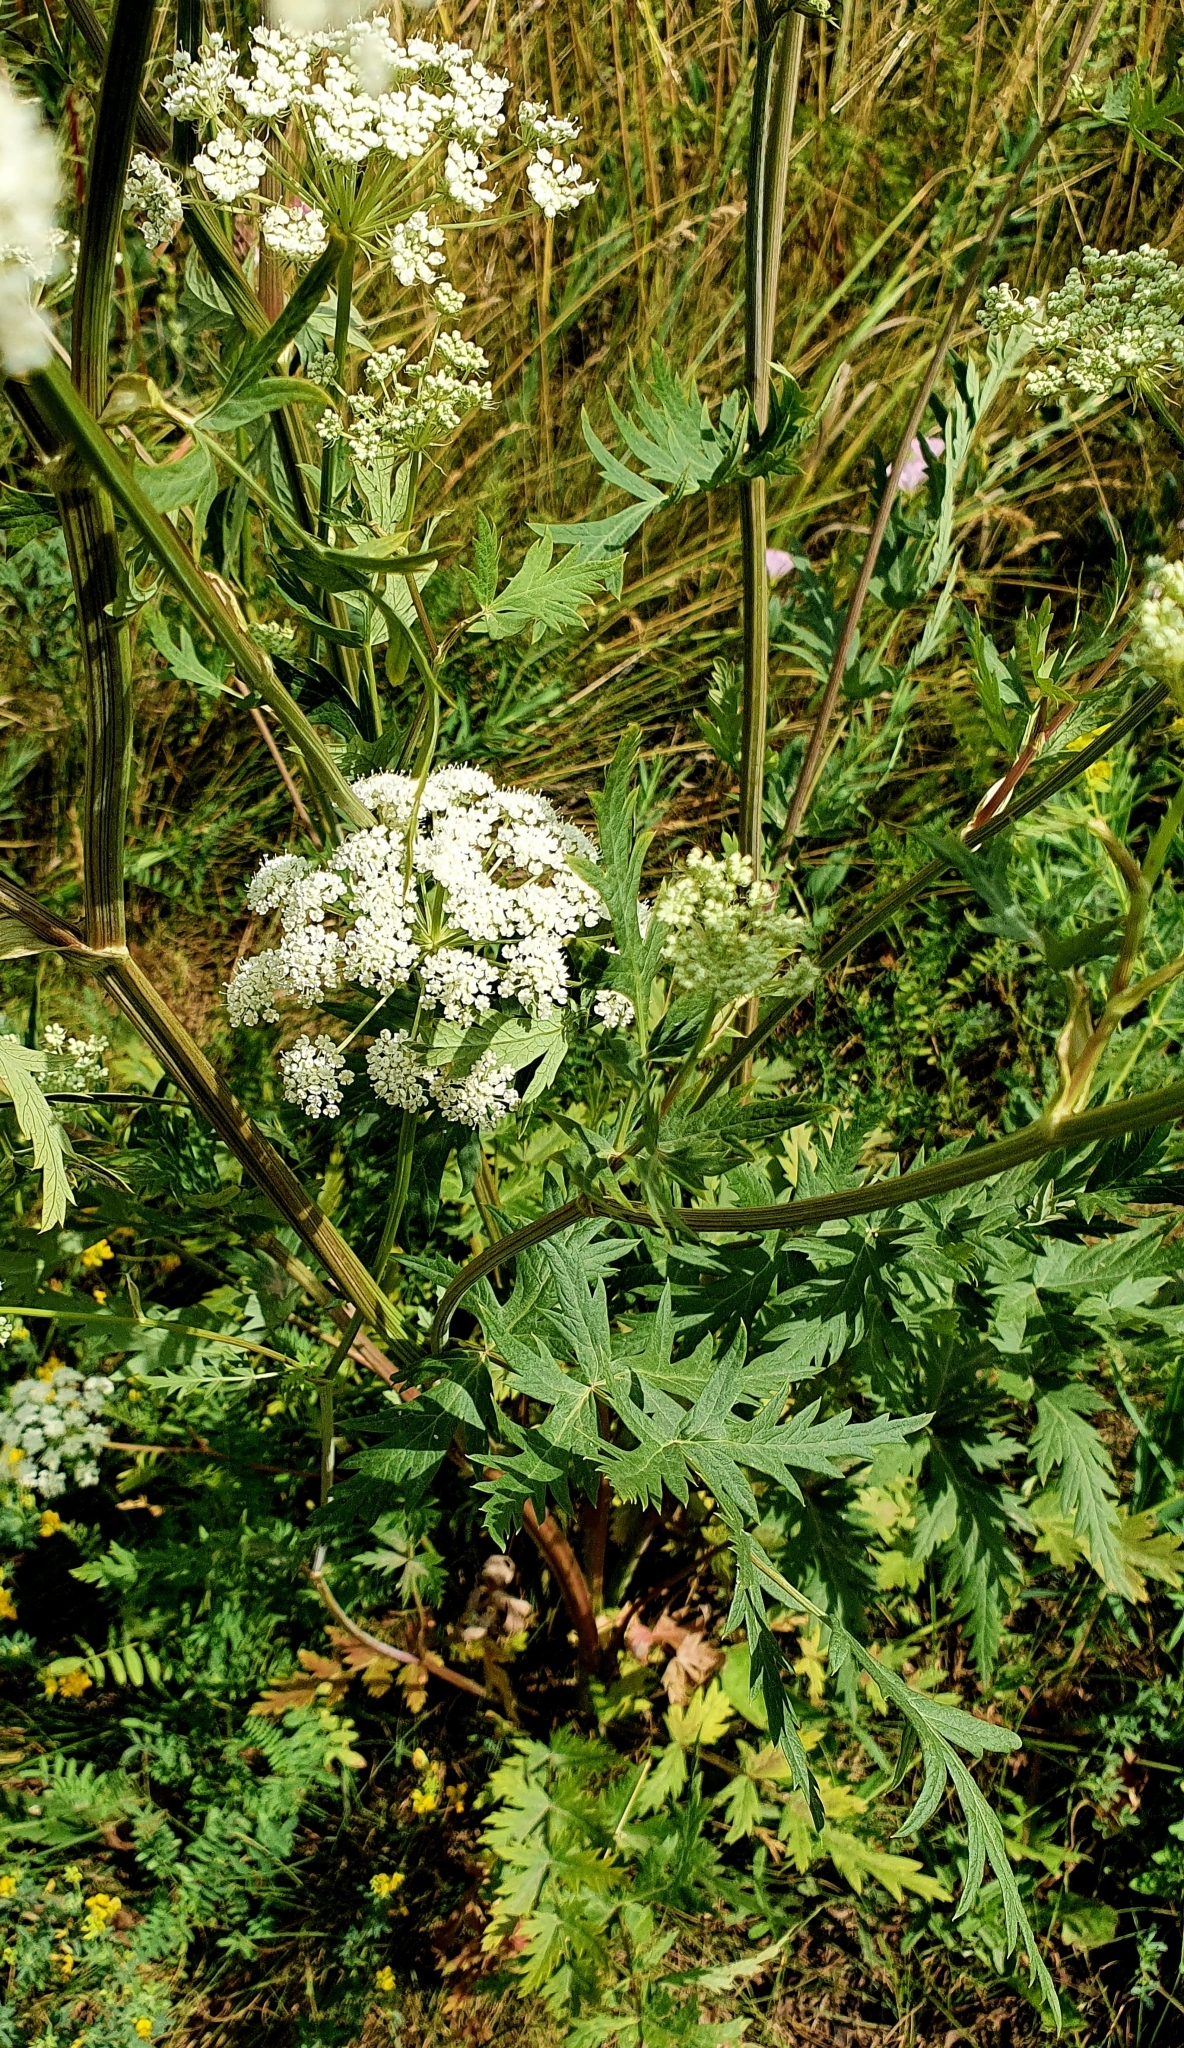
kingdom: Plantae
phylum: Tracheophyta
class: Magnoliopsida
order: Apiales
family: Apiaceae
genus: Seseli
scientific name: Seseli libanotis
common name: Mooncarrot
